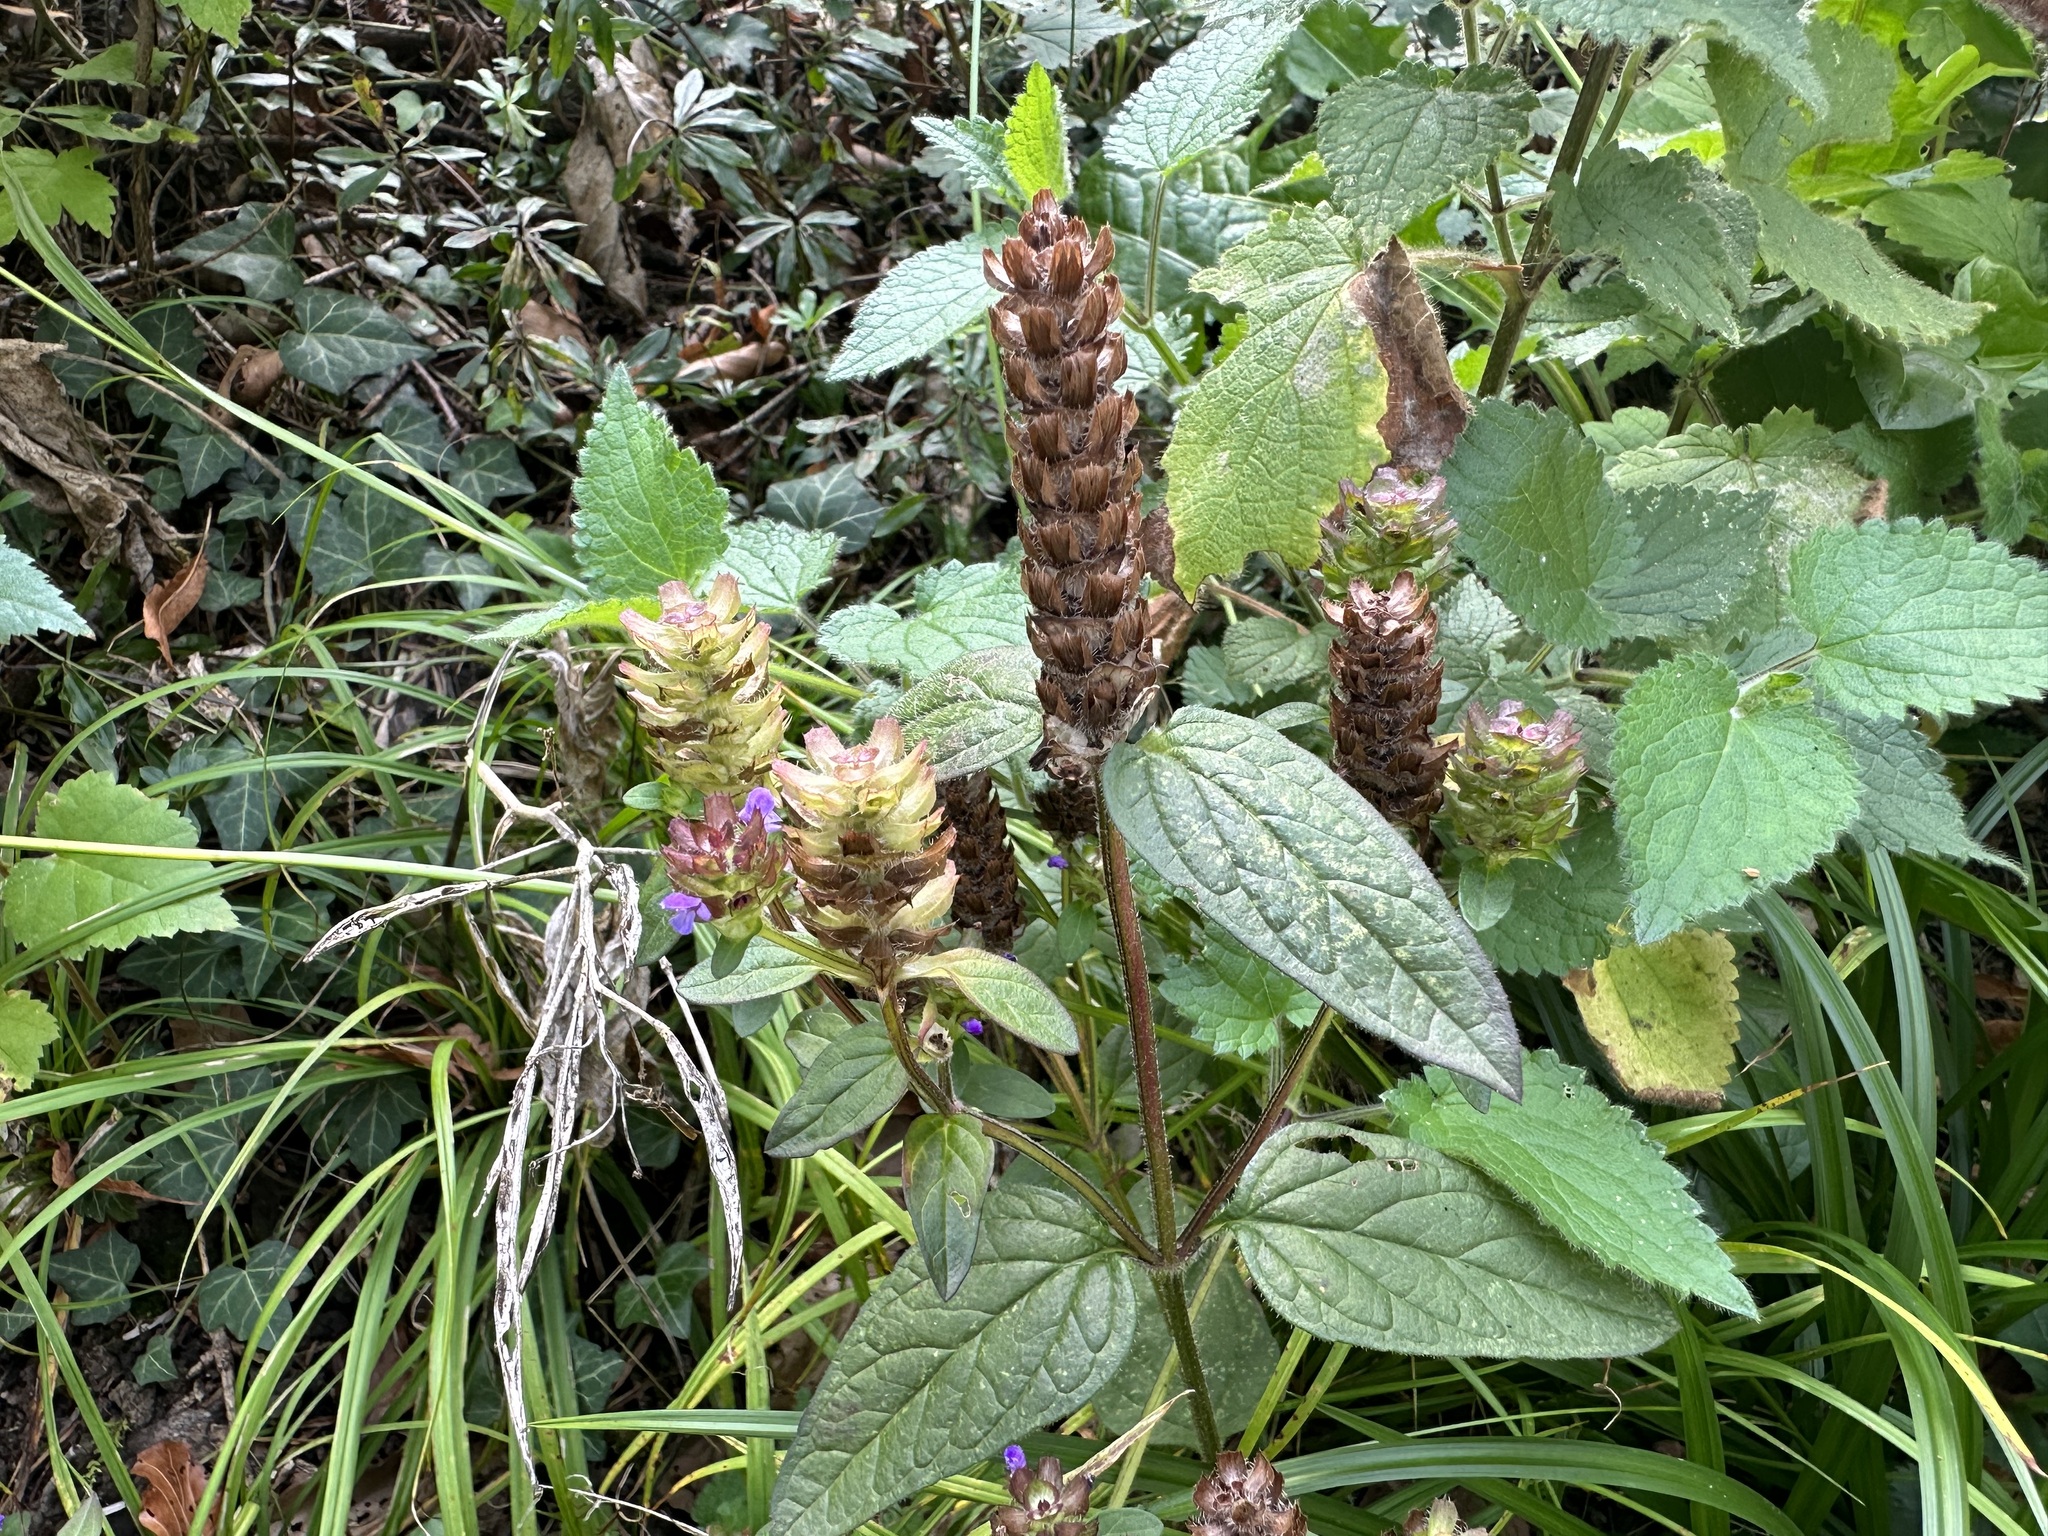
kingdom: Plantae
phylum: Tracheophyta
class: Magnoliopsida
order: Lamiales
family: Lamiaceae
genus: Prunella
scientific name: Prunella vulgaris
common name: Heal-all
